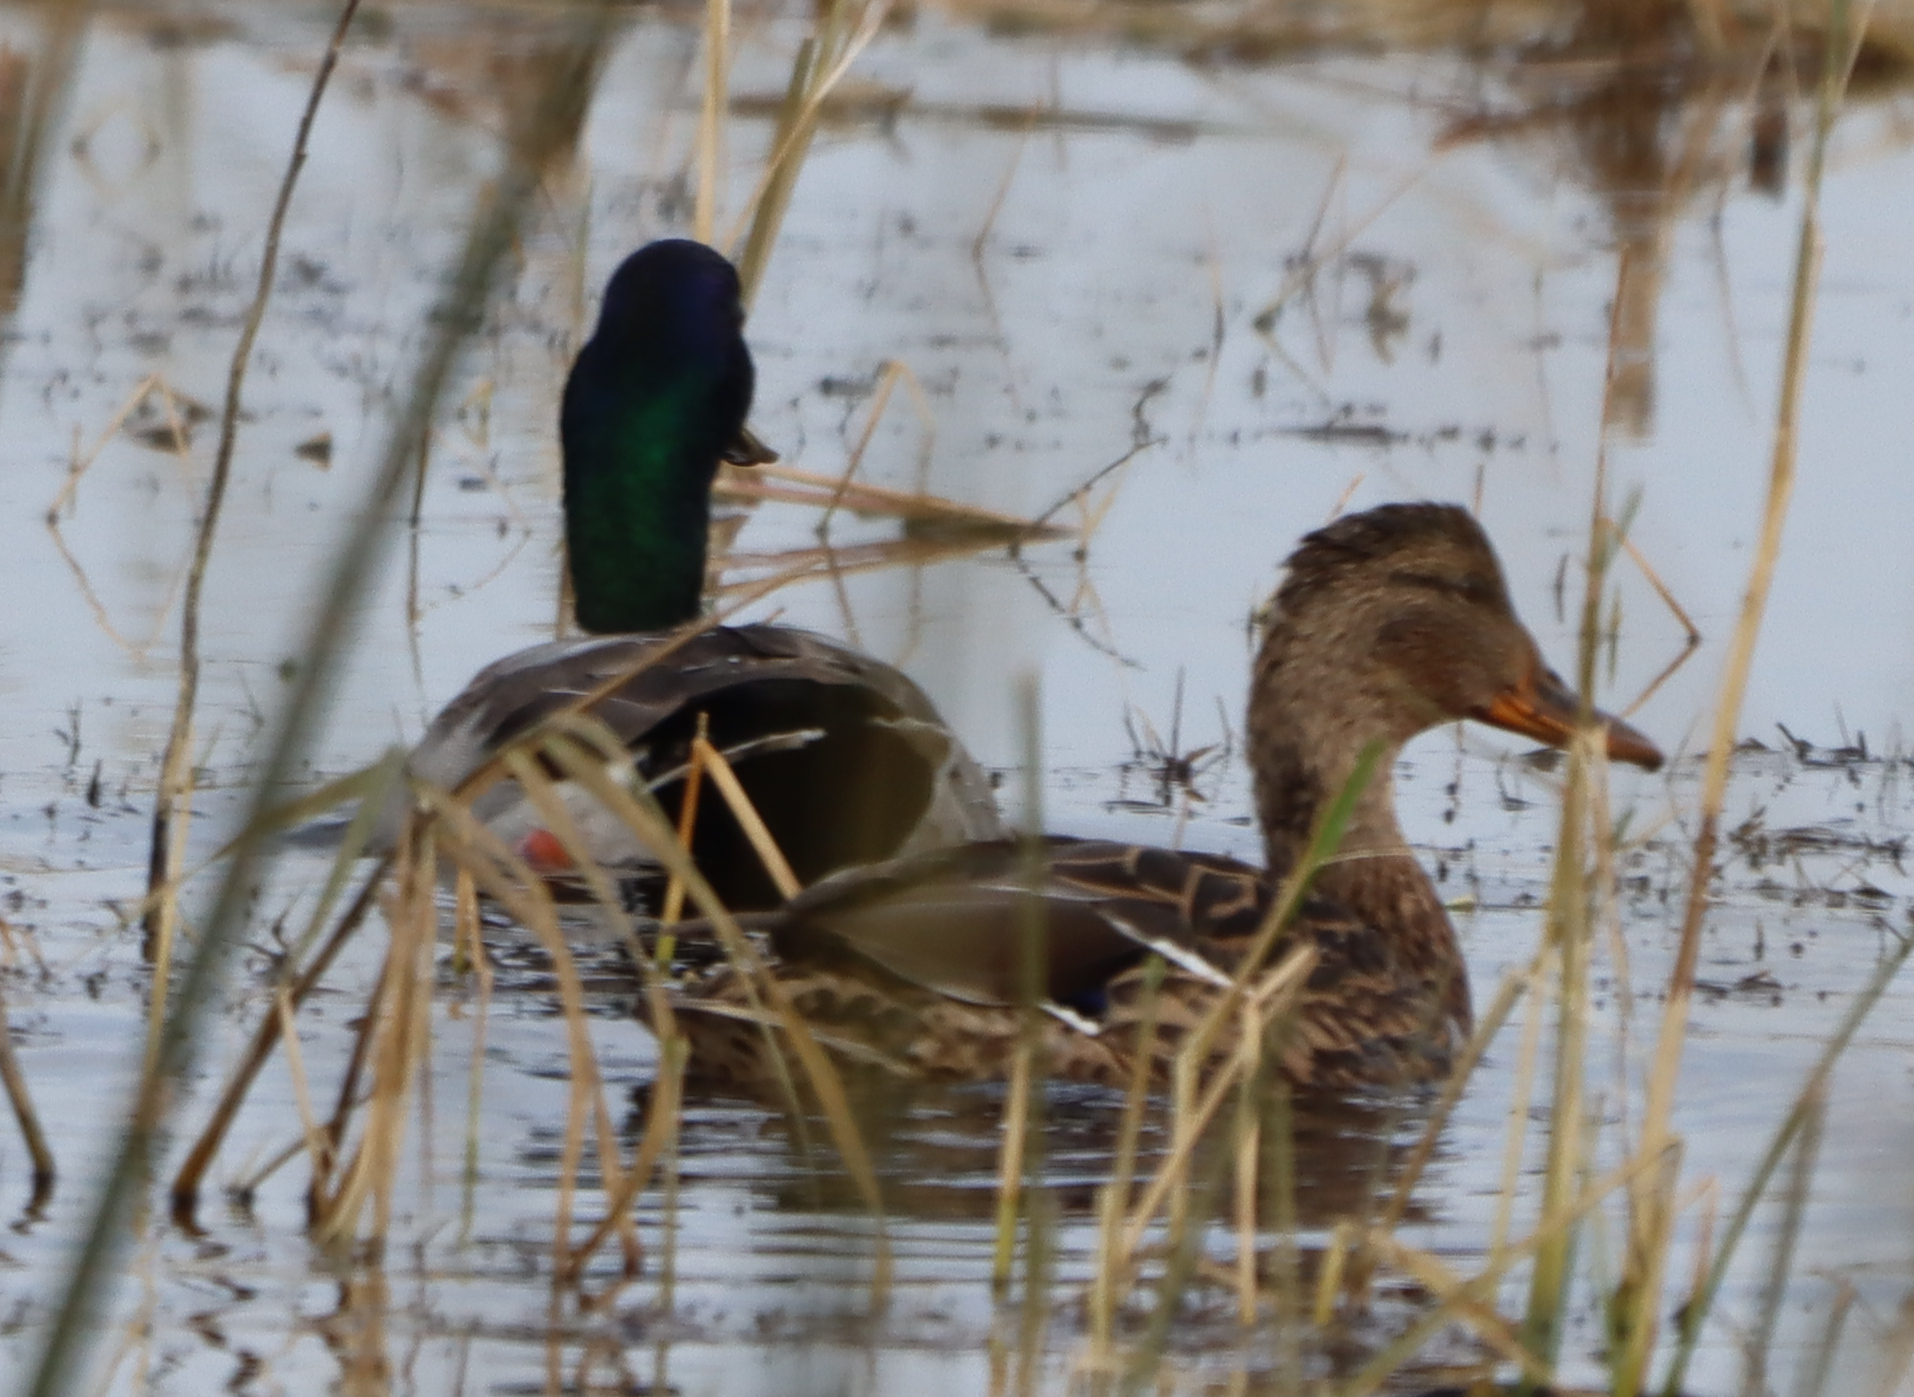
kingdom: Animalia
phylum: Chordata
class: Aves
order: Anseriformes
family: Anatidae
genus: Anas
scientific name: Anas platyrhynchos
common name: Mallard
